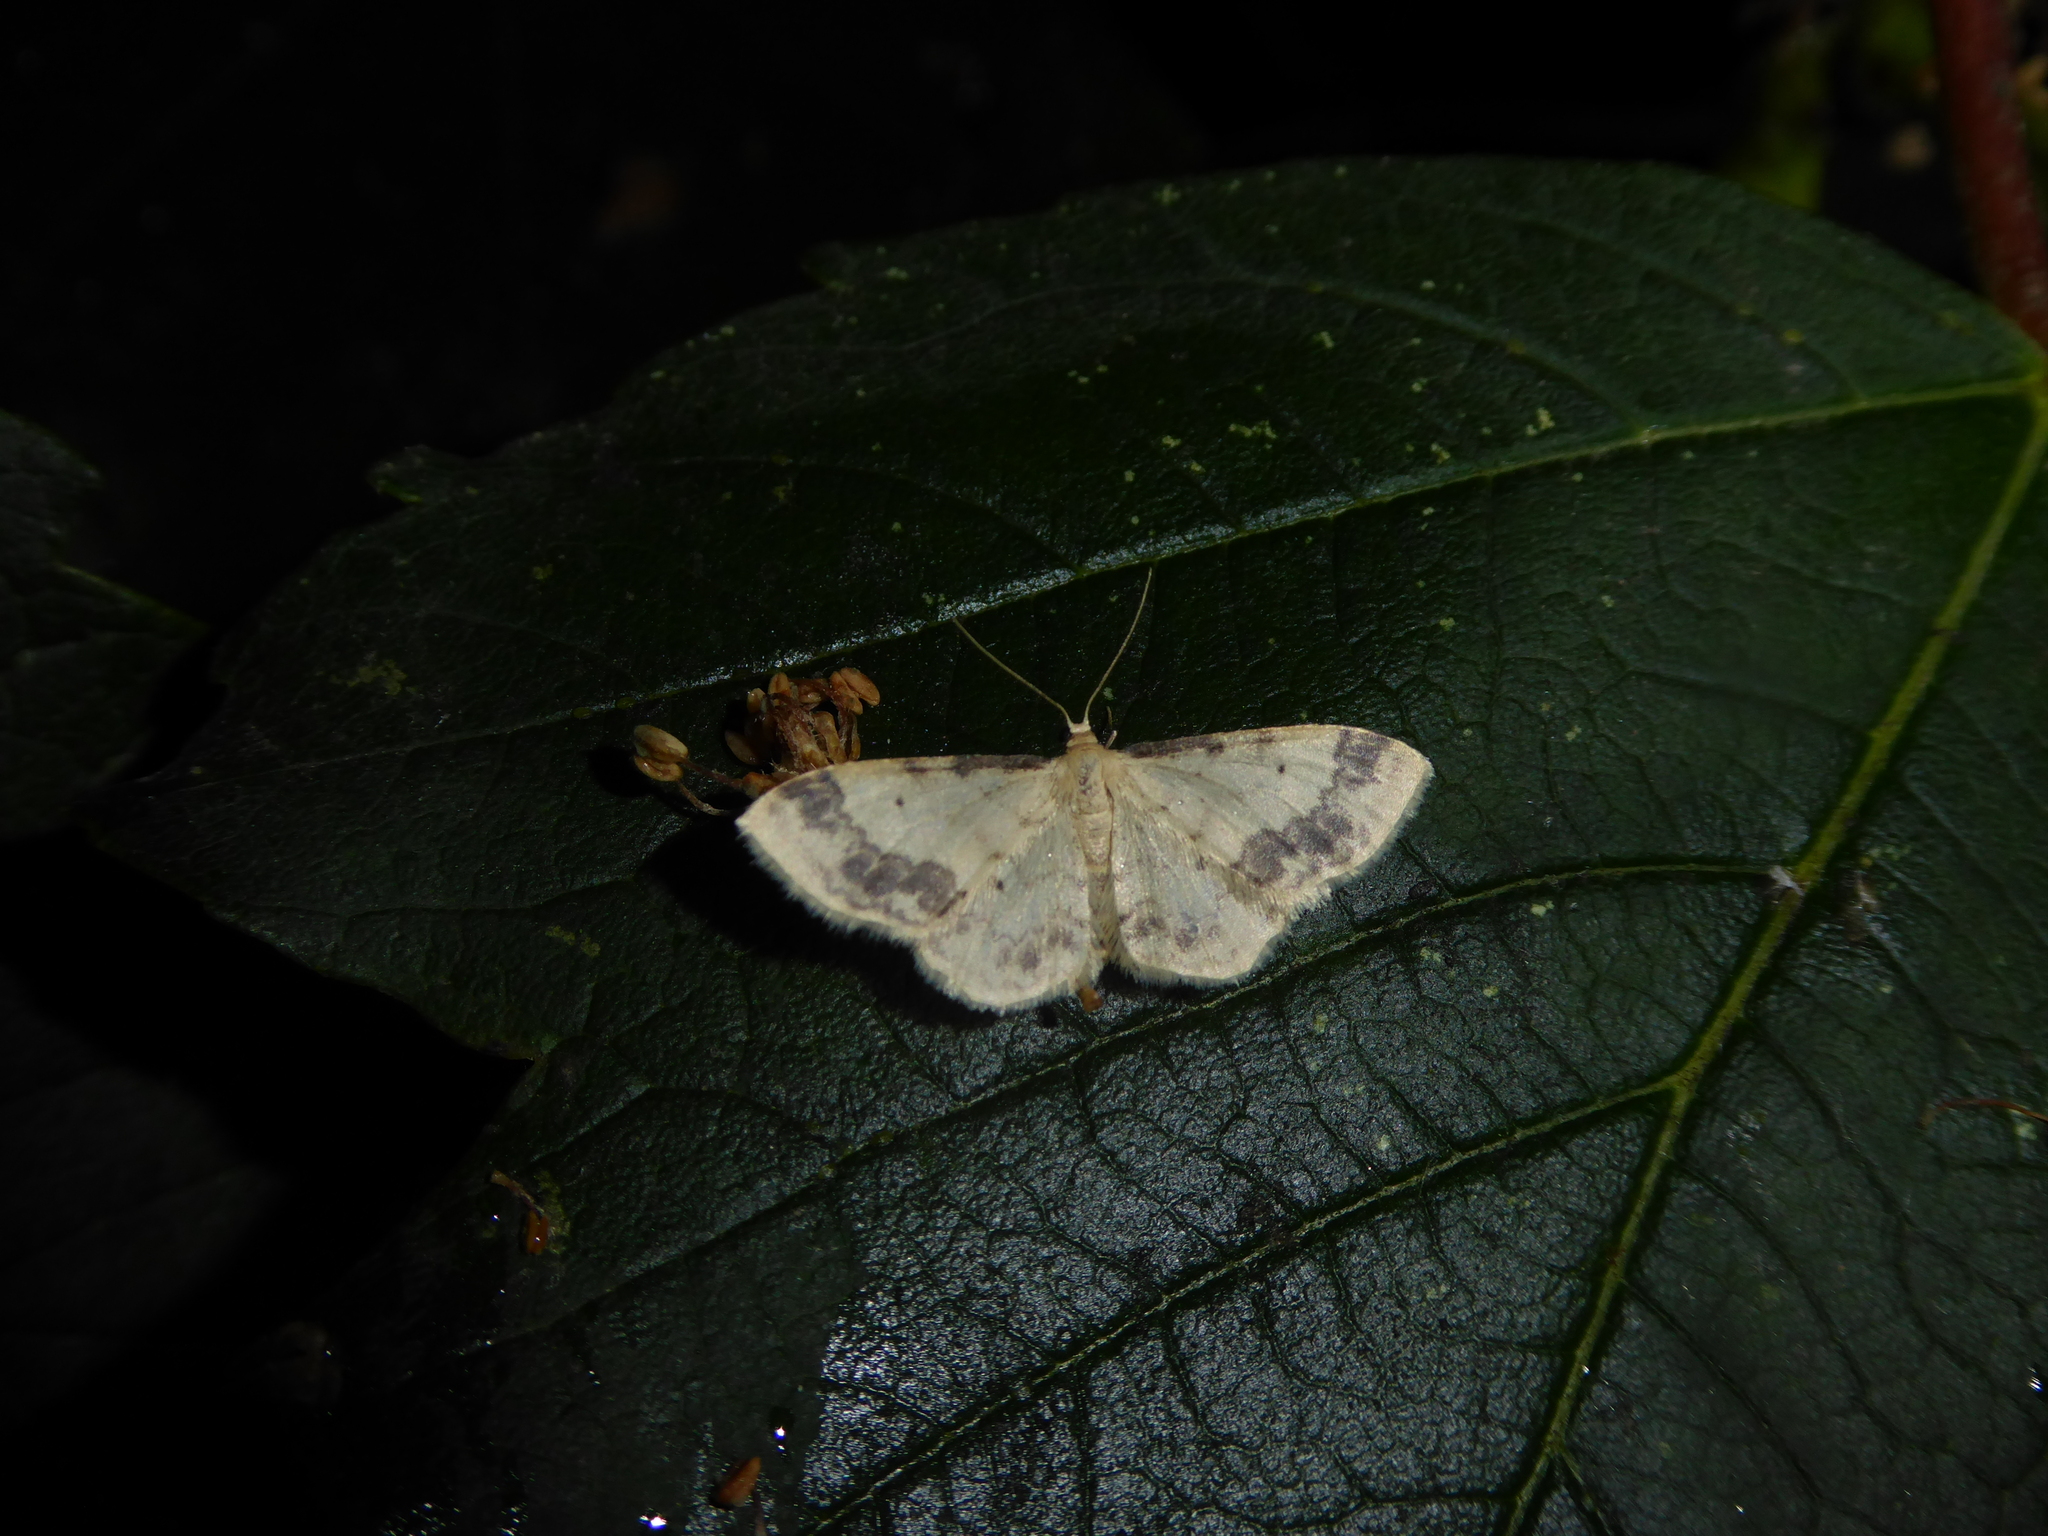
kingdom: Animalia
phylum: Arthropoda
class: Insecta
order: Lepidoptera
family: Geometridae
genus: Idaea
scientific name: Idaea trigeminata
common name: Treble brown spot
